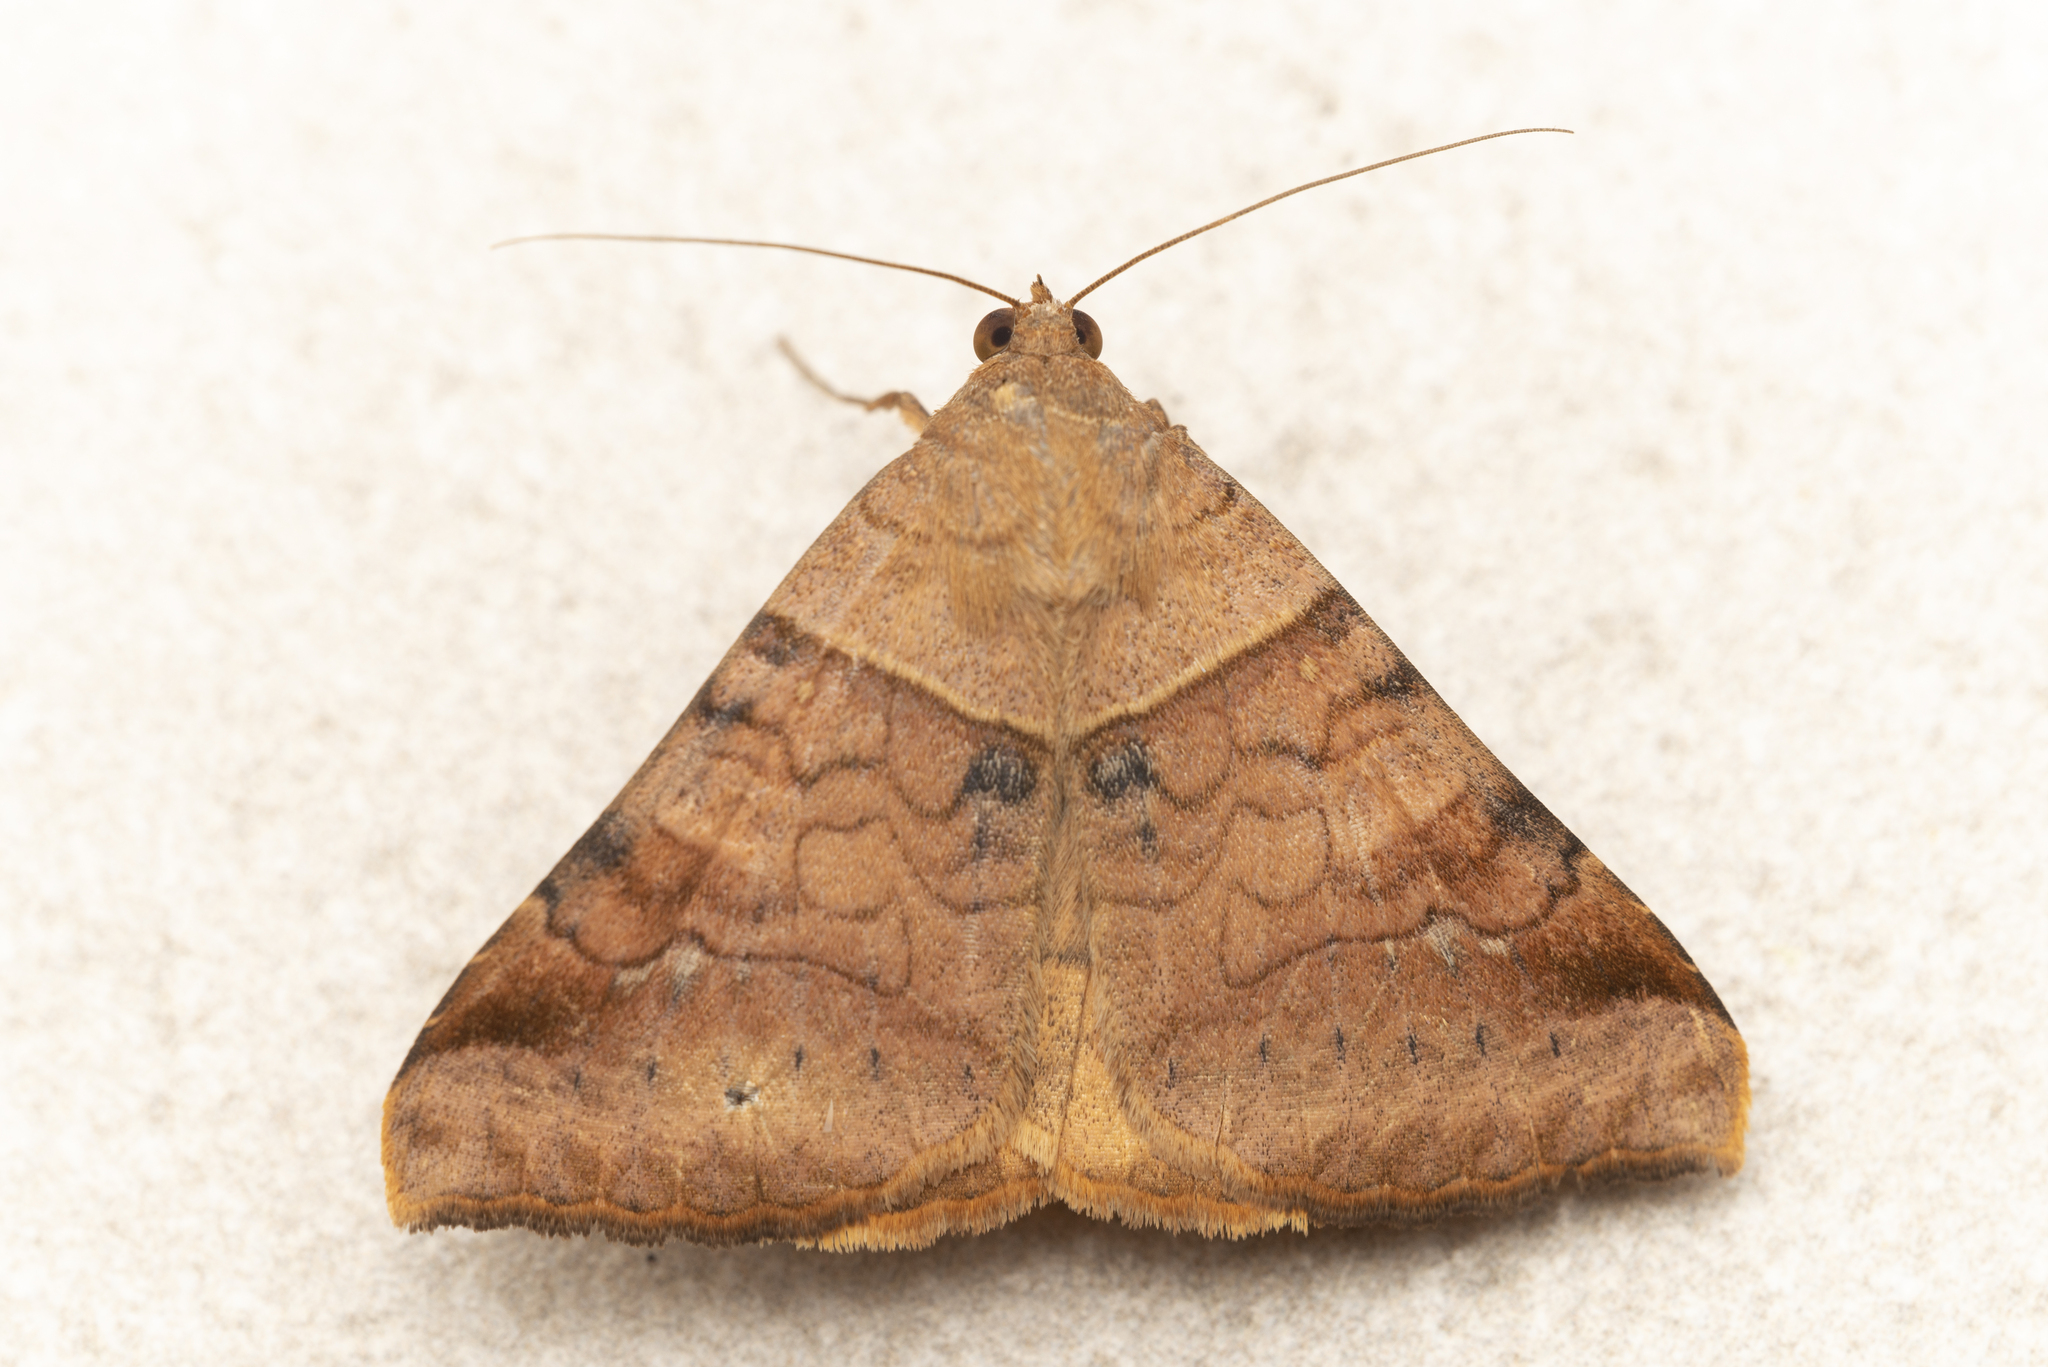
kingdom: Animalia
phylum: Arthropoda
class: Insecta
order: Lepidoptera
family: Erebidae
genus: Mocis
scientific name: Mocis undata
